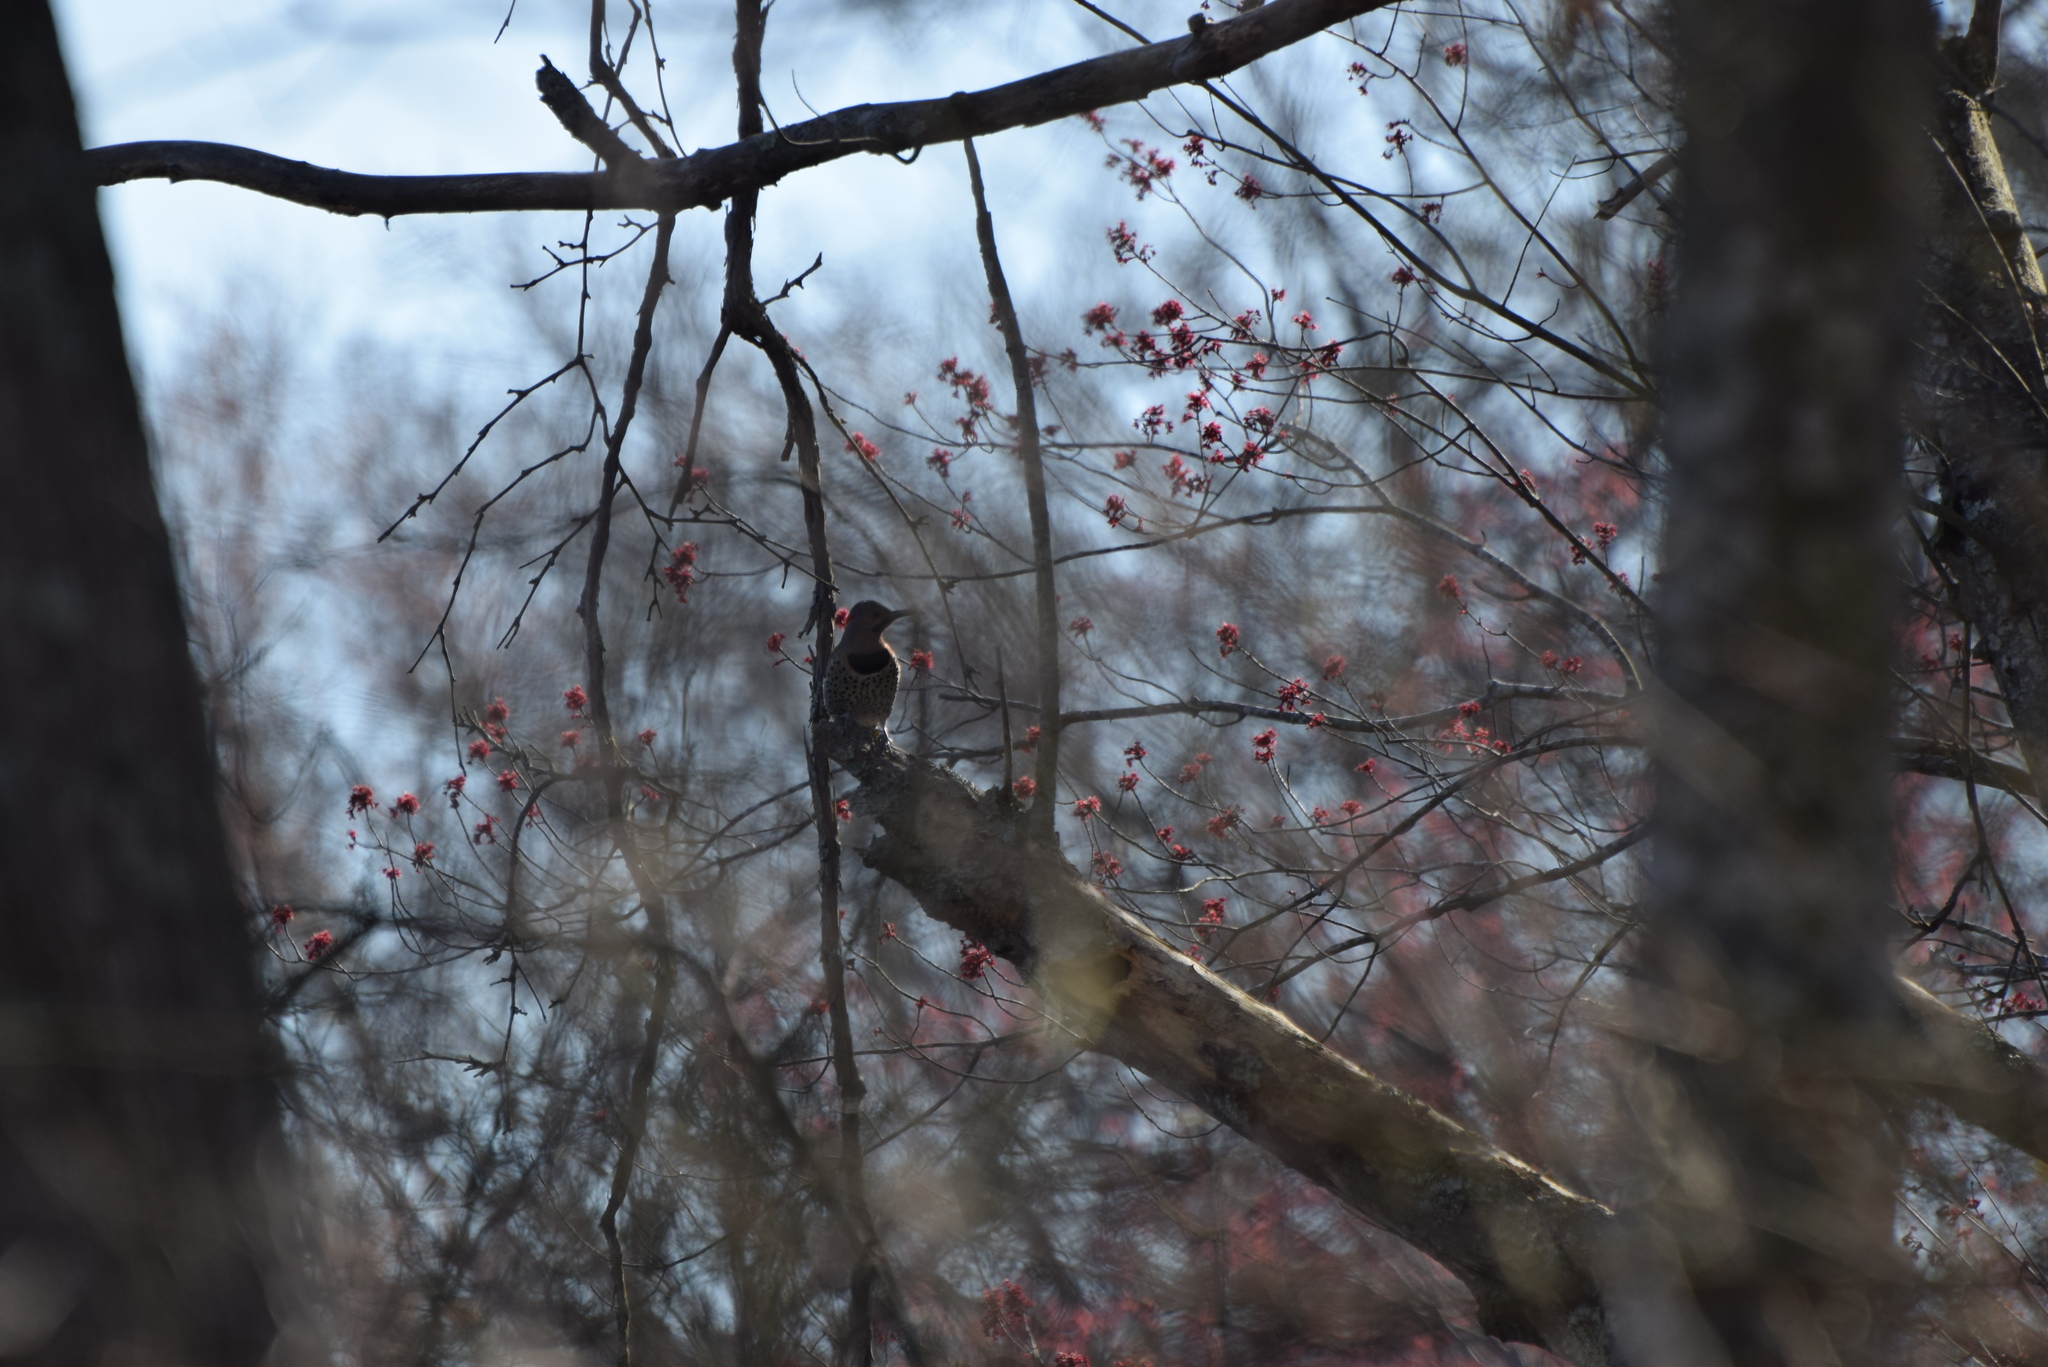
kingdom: Animalia
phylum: Chordata
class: Aves
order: Piciformes
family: Picidae
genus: Colaptes
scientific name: Colaptes auratus
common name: Northern flicker
